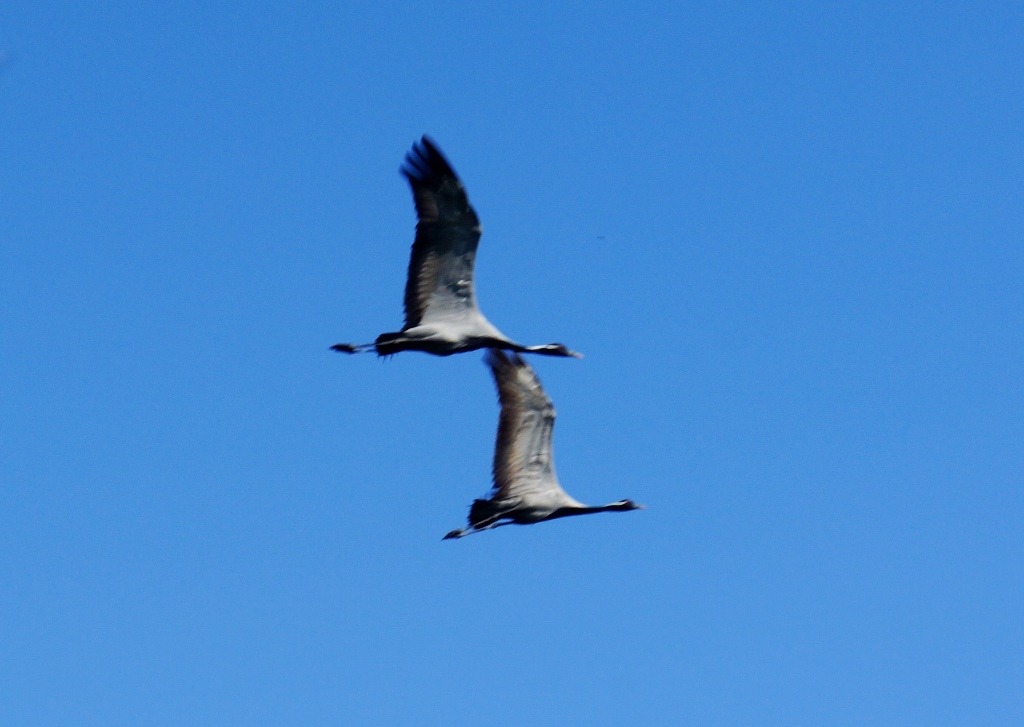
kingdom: Animalia
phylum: Chordata
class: Aves
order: Gruiformes
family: Gruidae
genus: Anthropoides
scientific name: Anthropoides virgo
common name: Demoiselle crane
